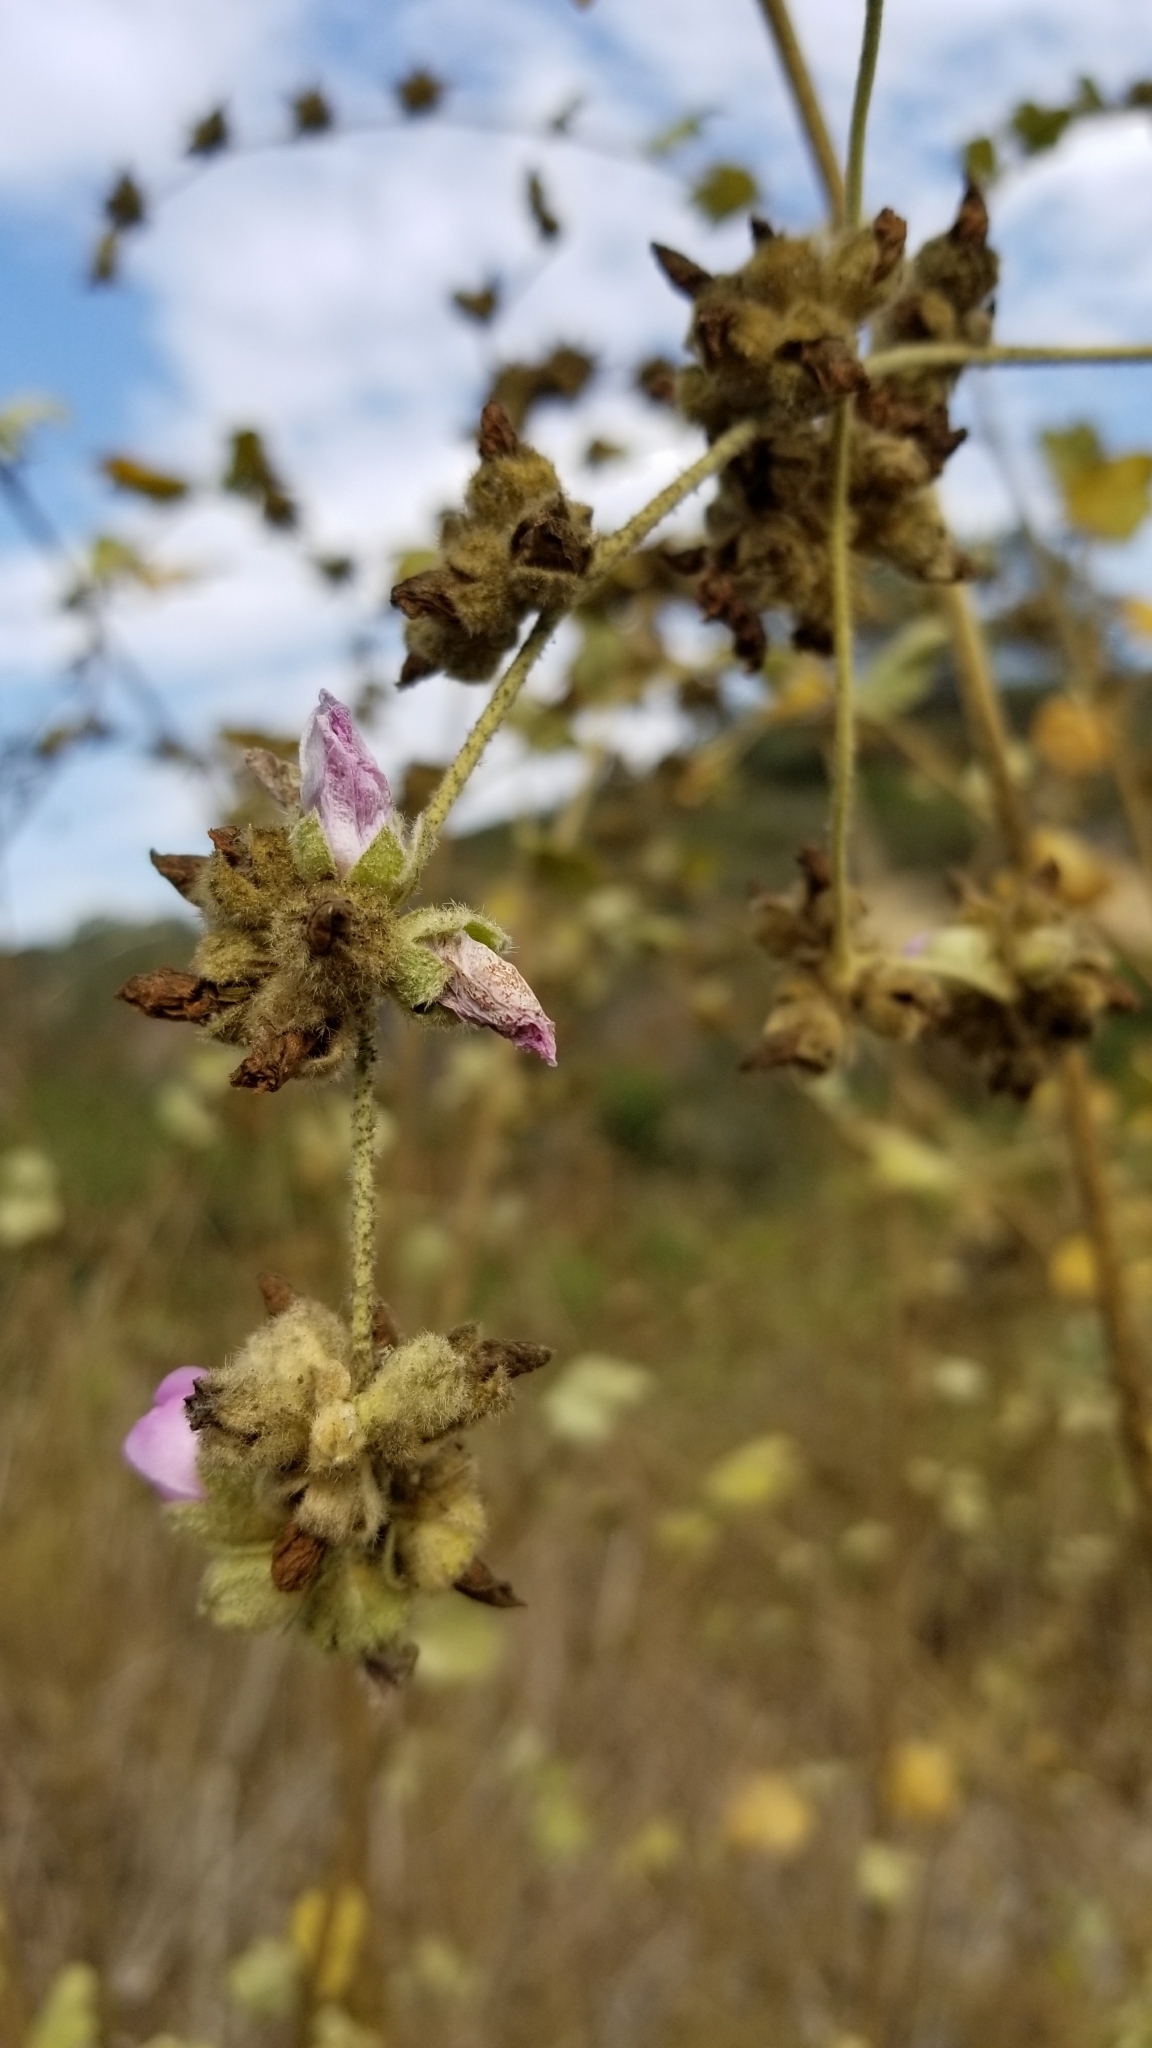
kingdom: Plantae
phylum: Tracheophyta
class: Magnoliopsida
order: Malvales
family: Malvaceae
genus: Malacothamnus
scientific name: Malacothamnus fasciculatus
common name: Sant cruz island bush-mallow
